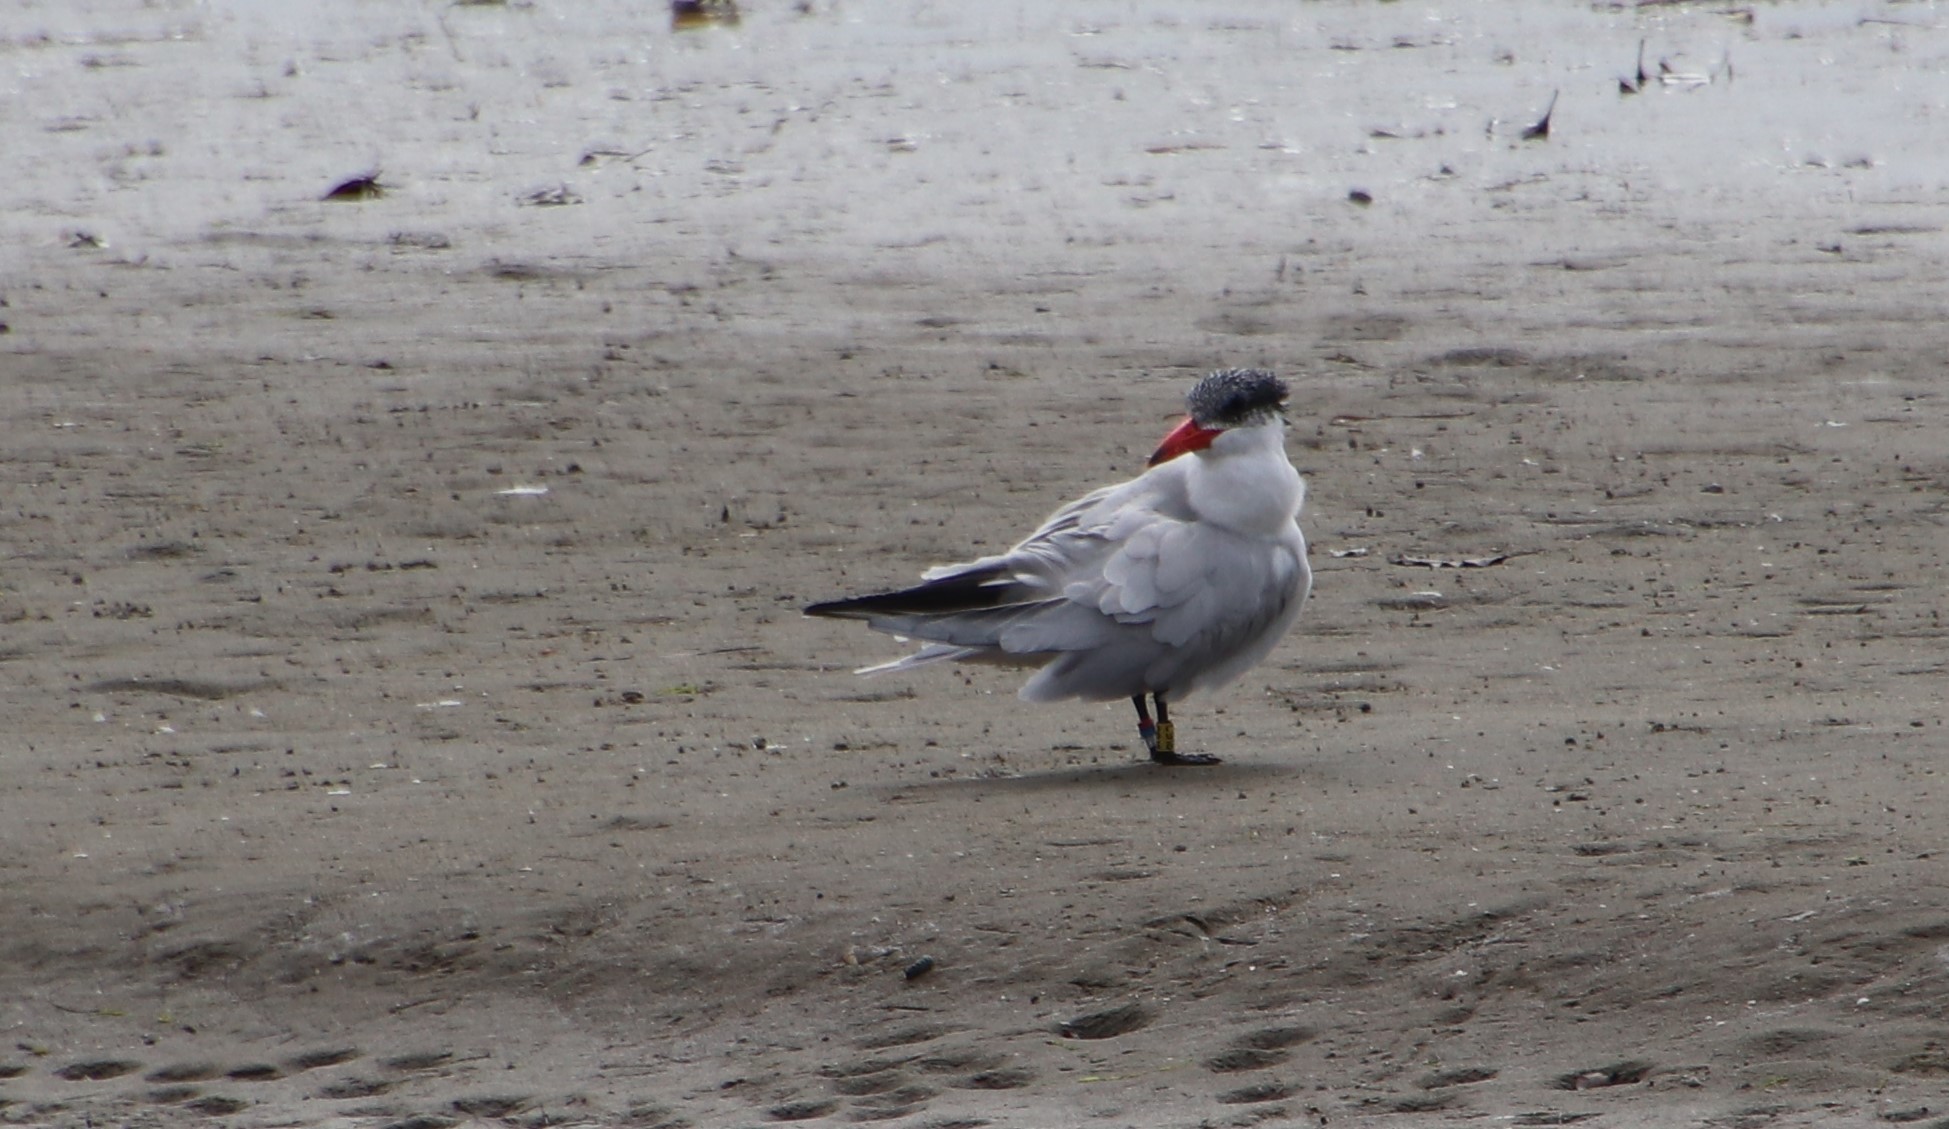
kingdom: Animalia
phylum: Chordata
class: Aves
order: Charadriiformes
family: Laridae
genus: Hydroprogne
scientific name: Hydroprogne caspia
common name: Caspian tern
